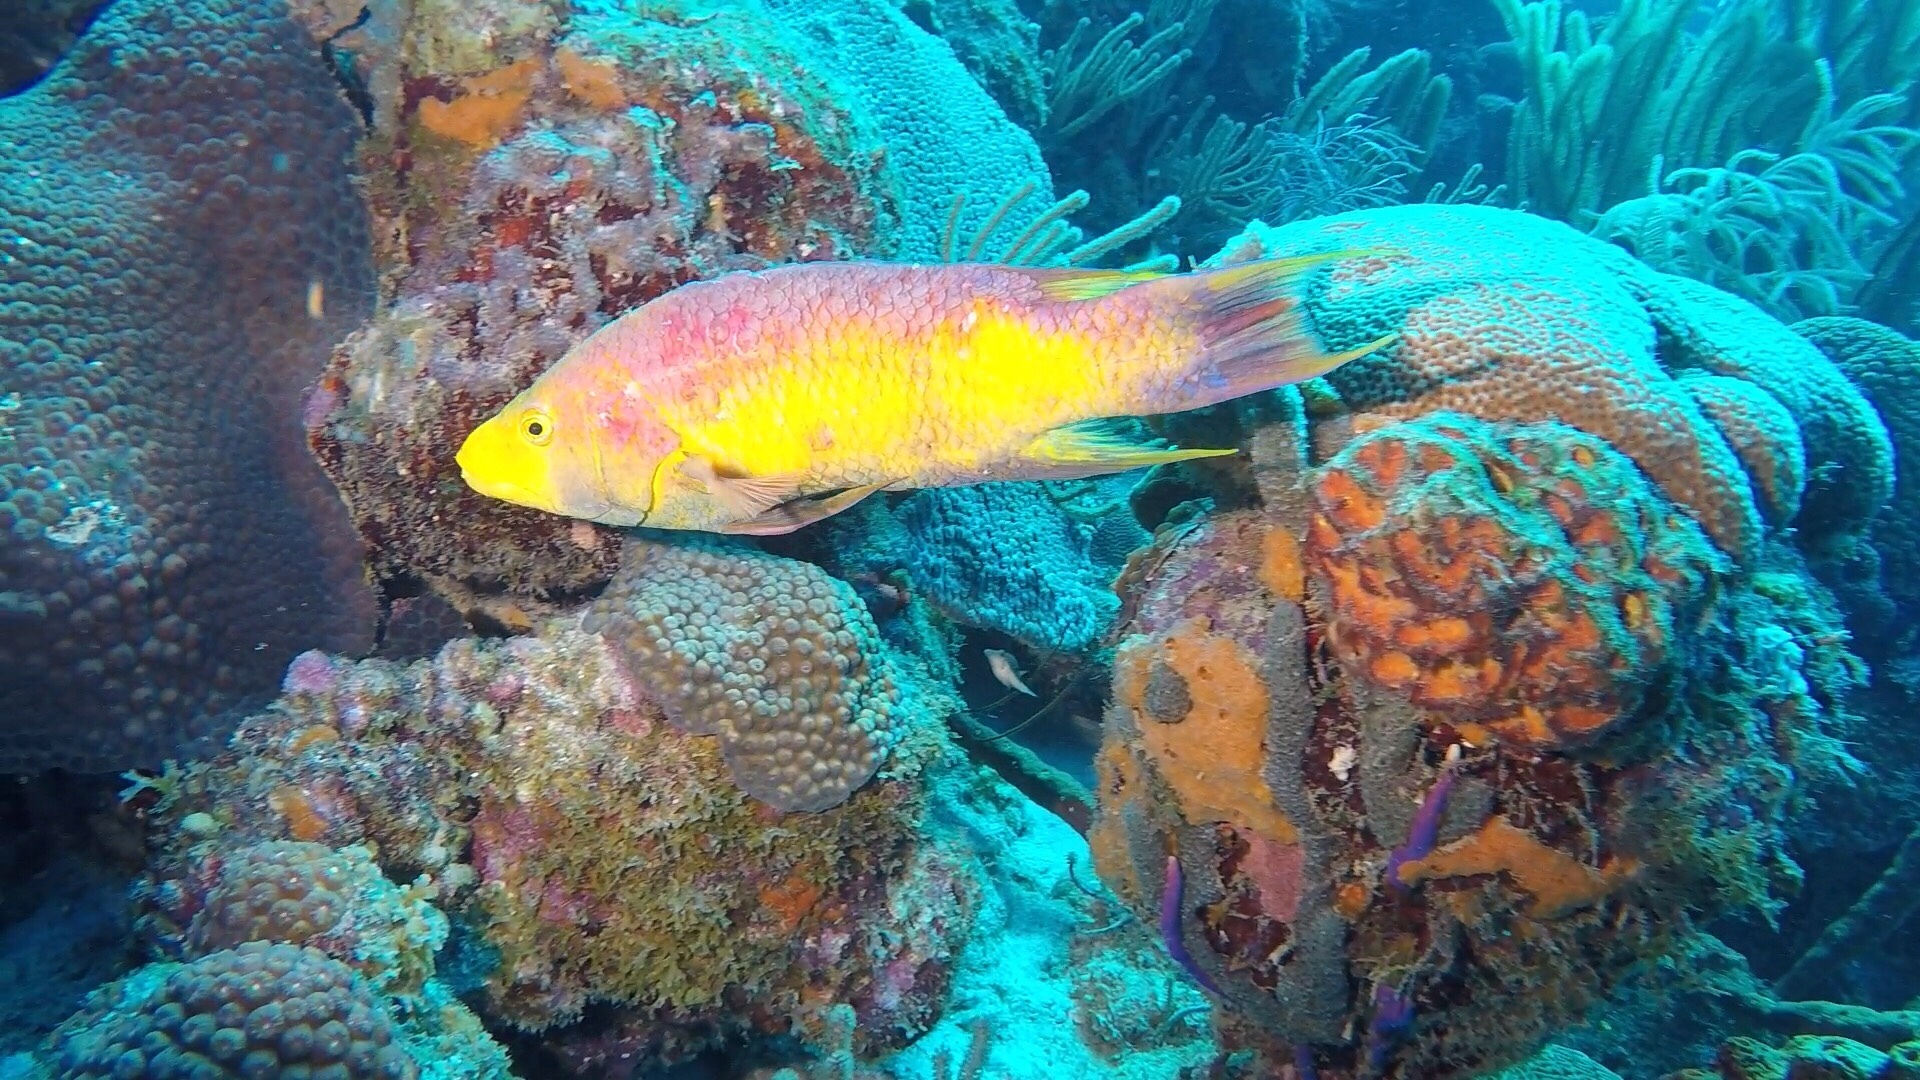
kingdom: Animalia
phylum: Chordata
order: Perciformes
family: Labridae
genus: Bodianus
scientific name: Bodianus rufus
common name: Spanish hogfish
